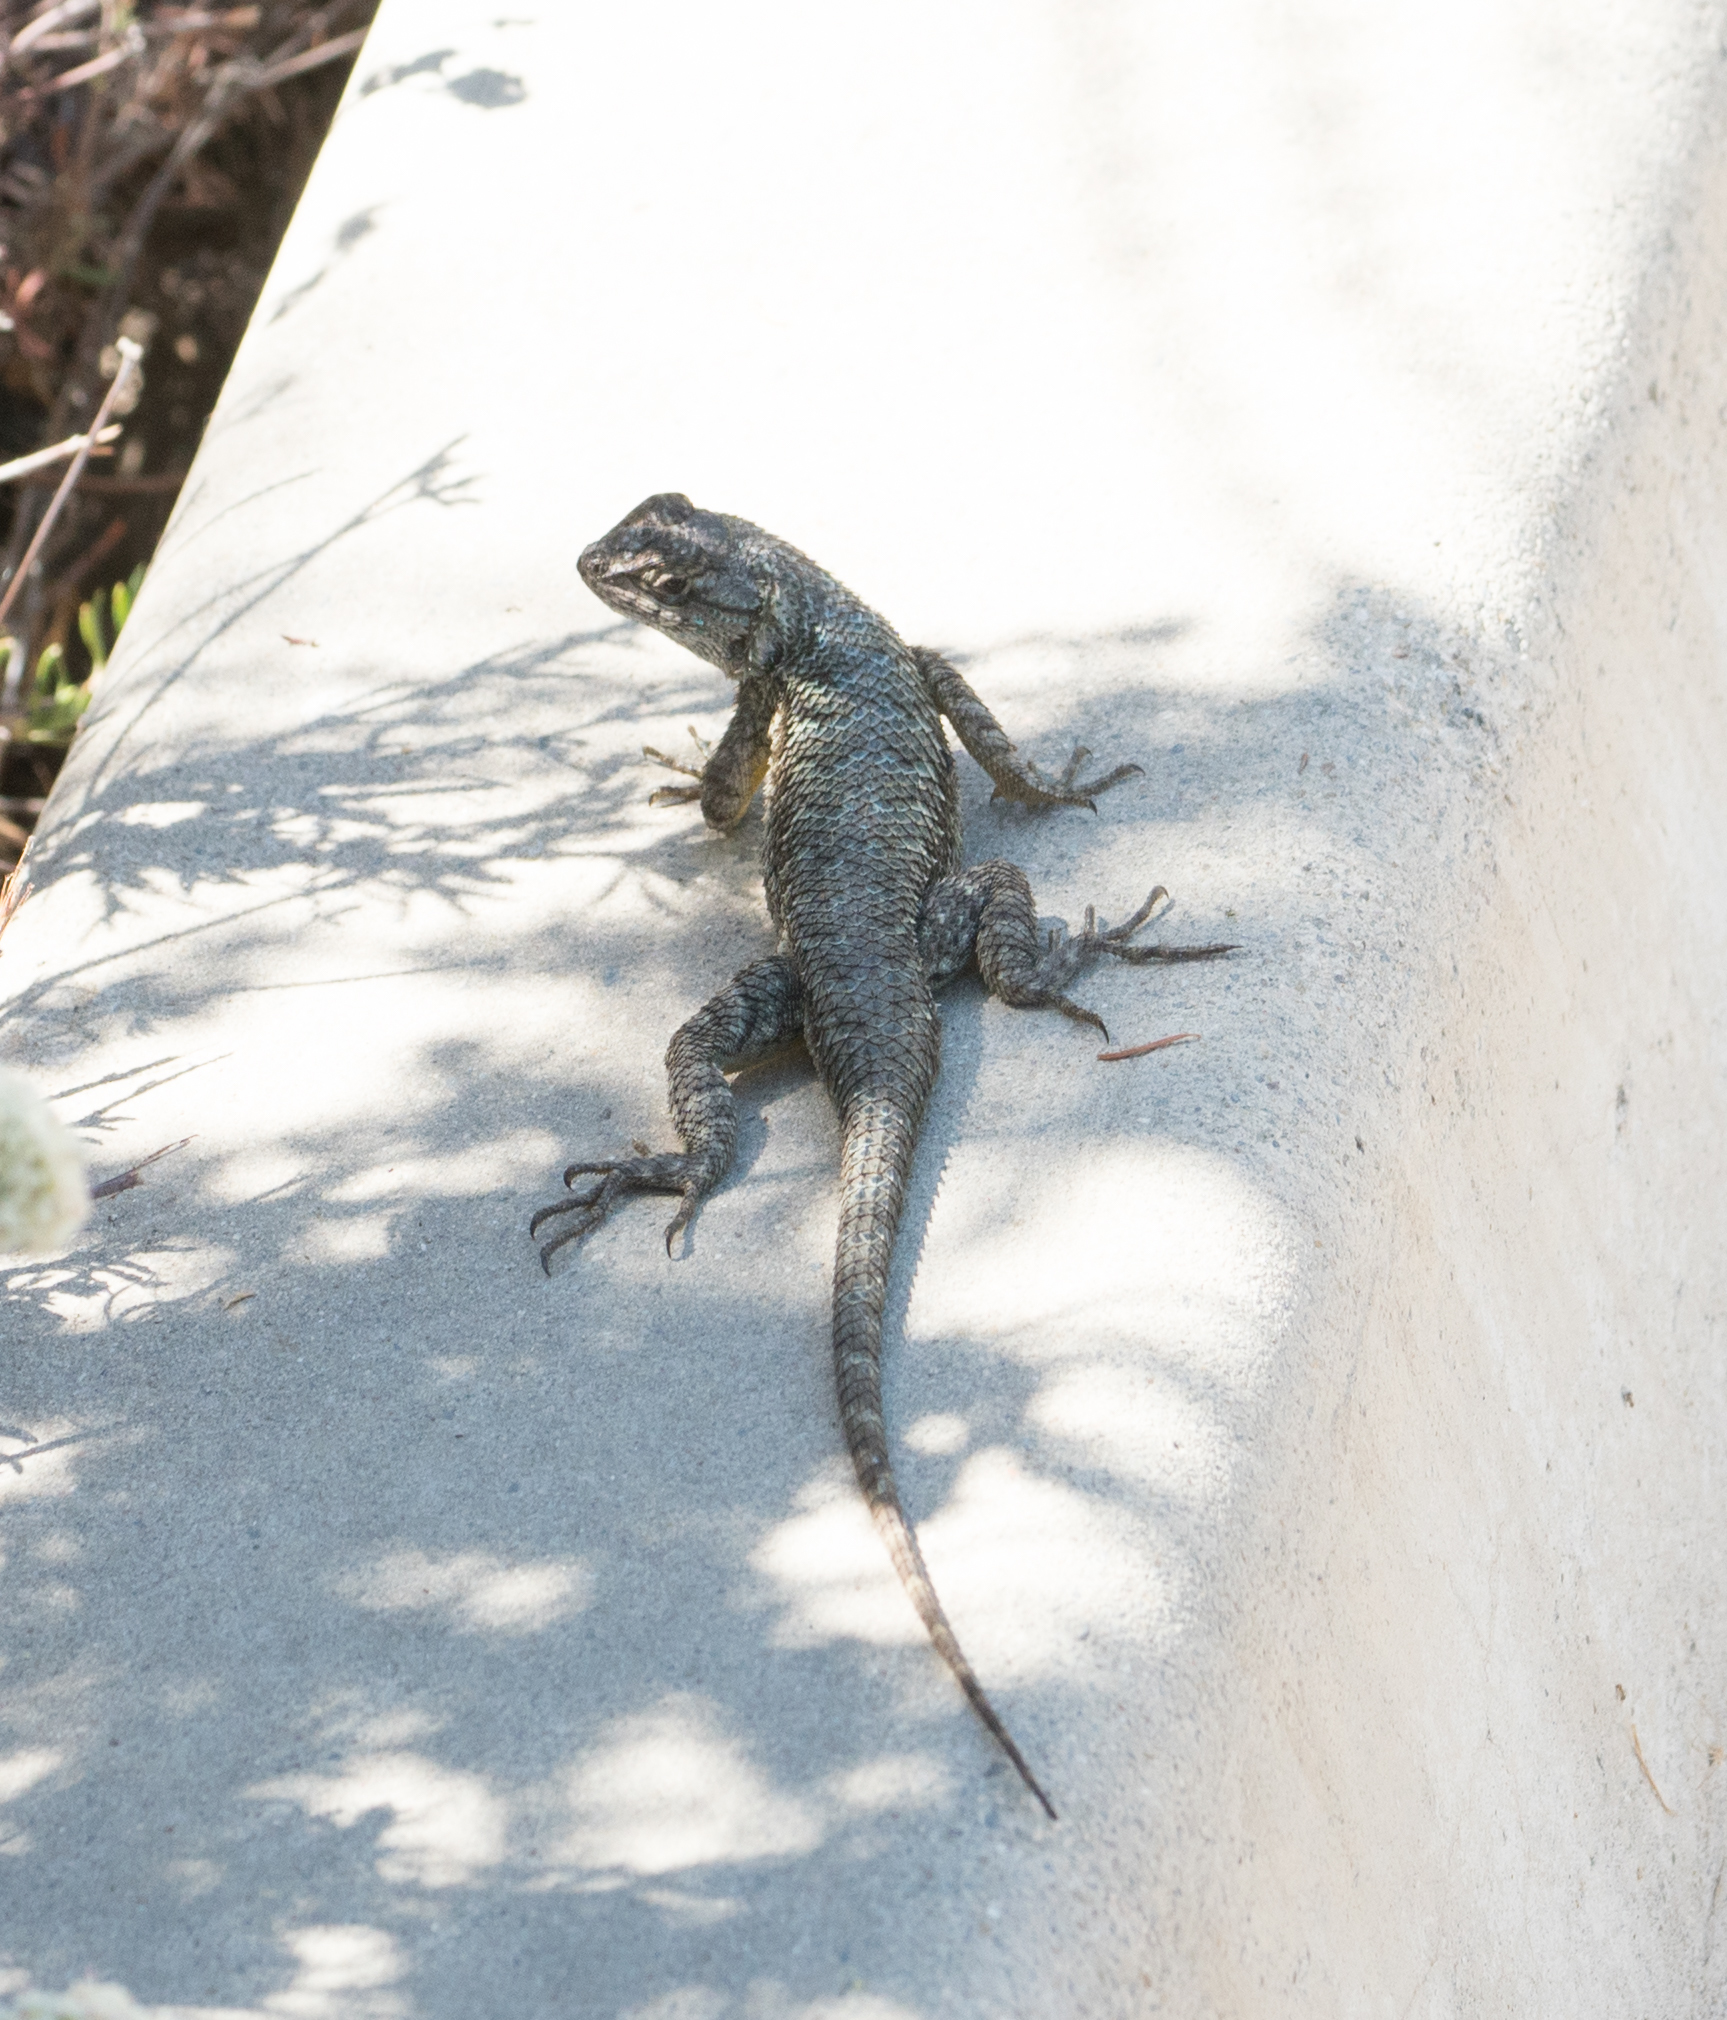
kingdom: Animalia
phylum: Chordata
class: Squamata
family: Phrynosomatidae
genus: Sceloporus
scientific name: Sceloporus occidentalis
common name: Western fence lizard
